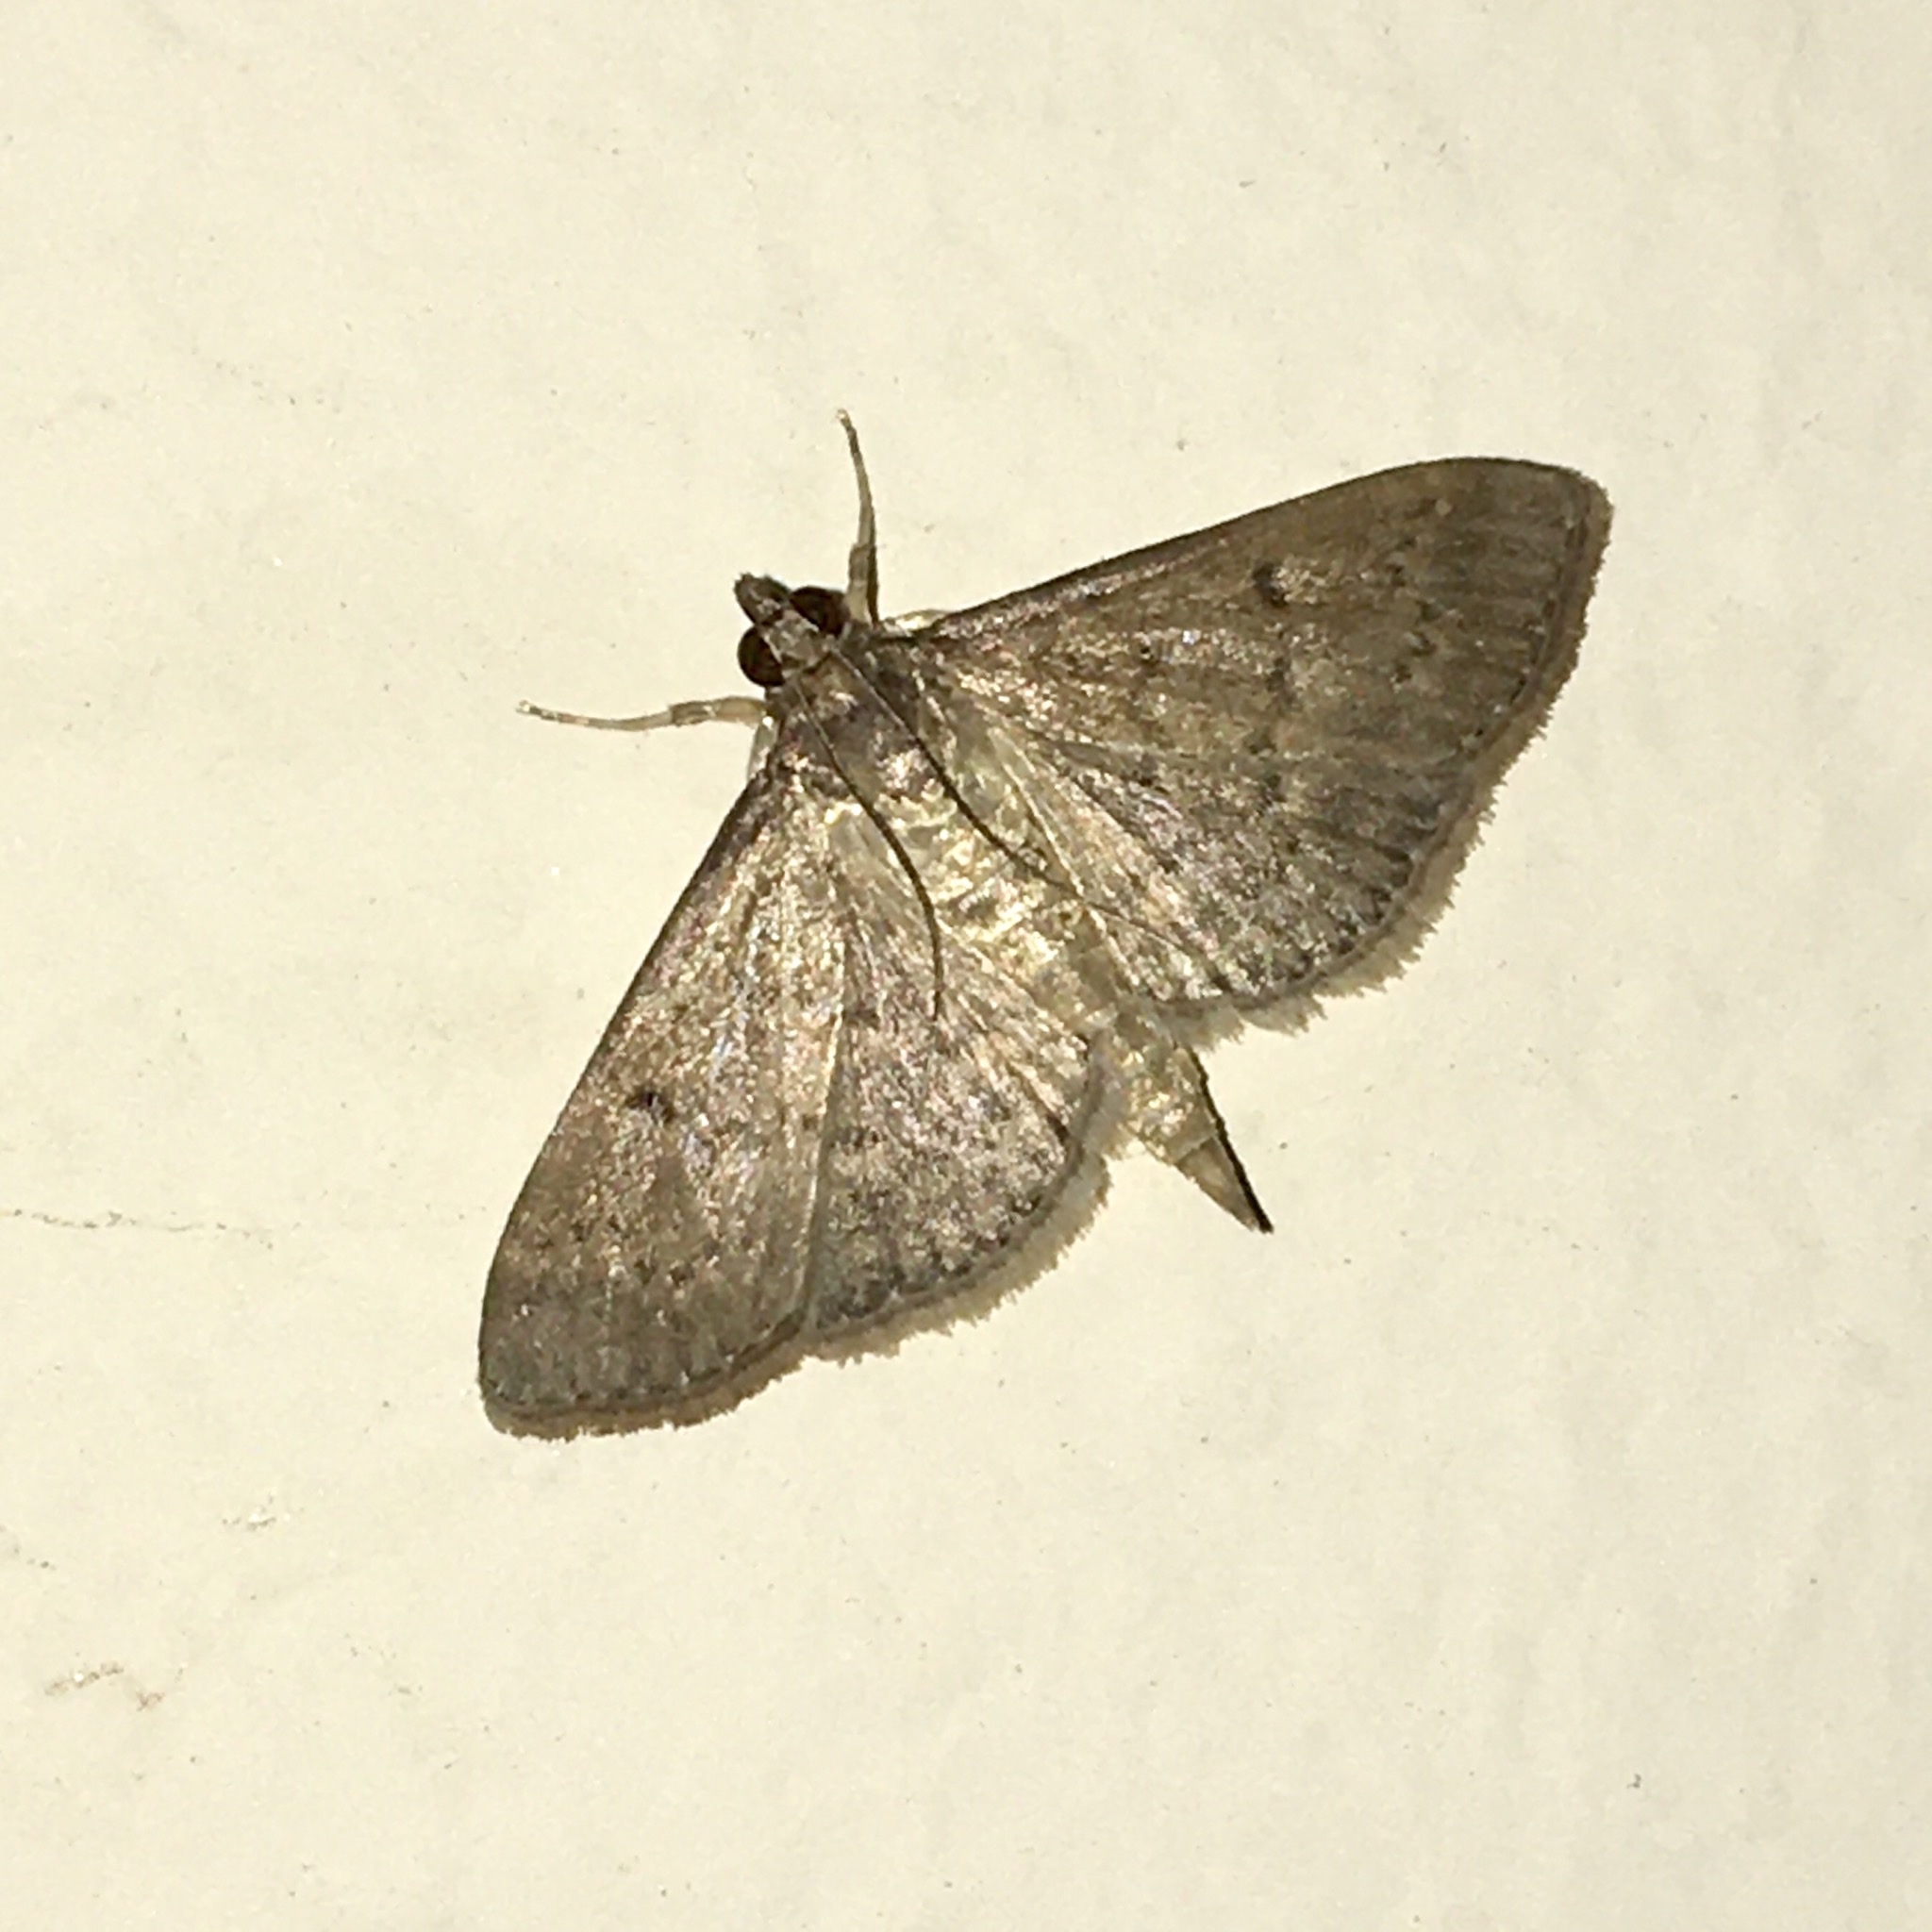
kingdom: Animalia
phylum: Arthropoda
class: Insecta
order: Lepidoptera
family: Crambidae
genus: Herpetogramma
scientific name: Herpetogramma licarsisalis
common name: Grass webworm
